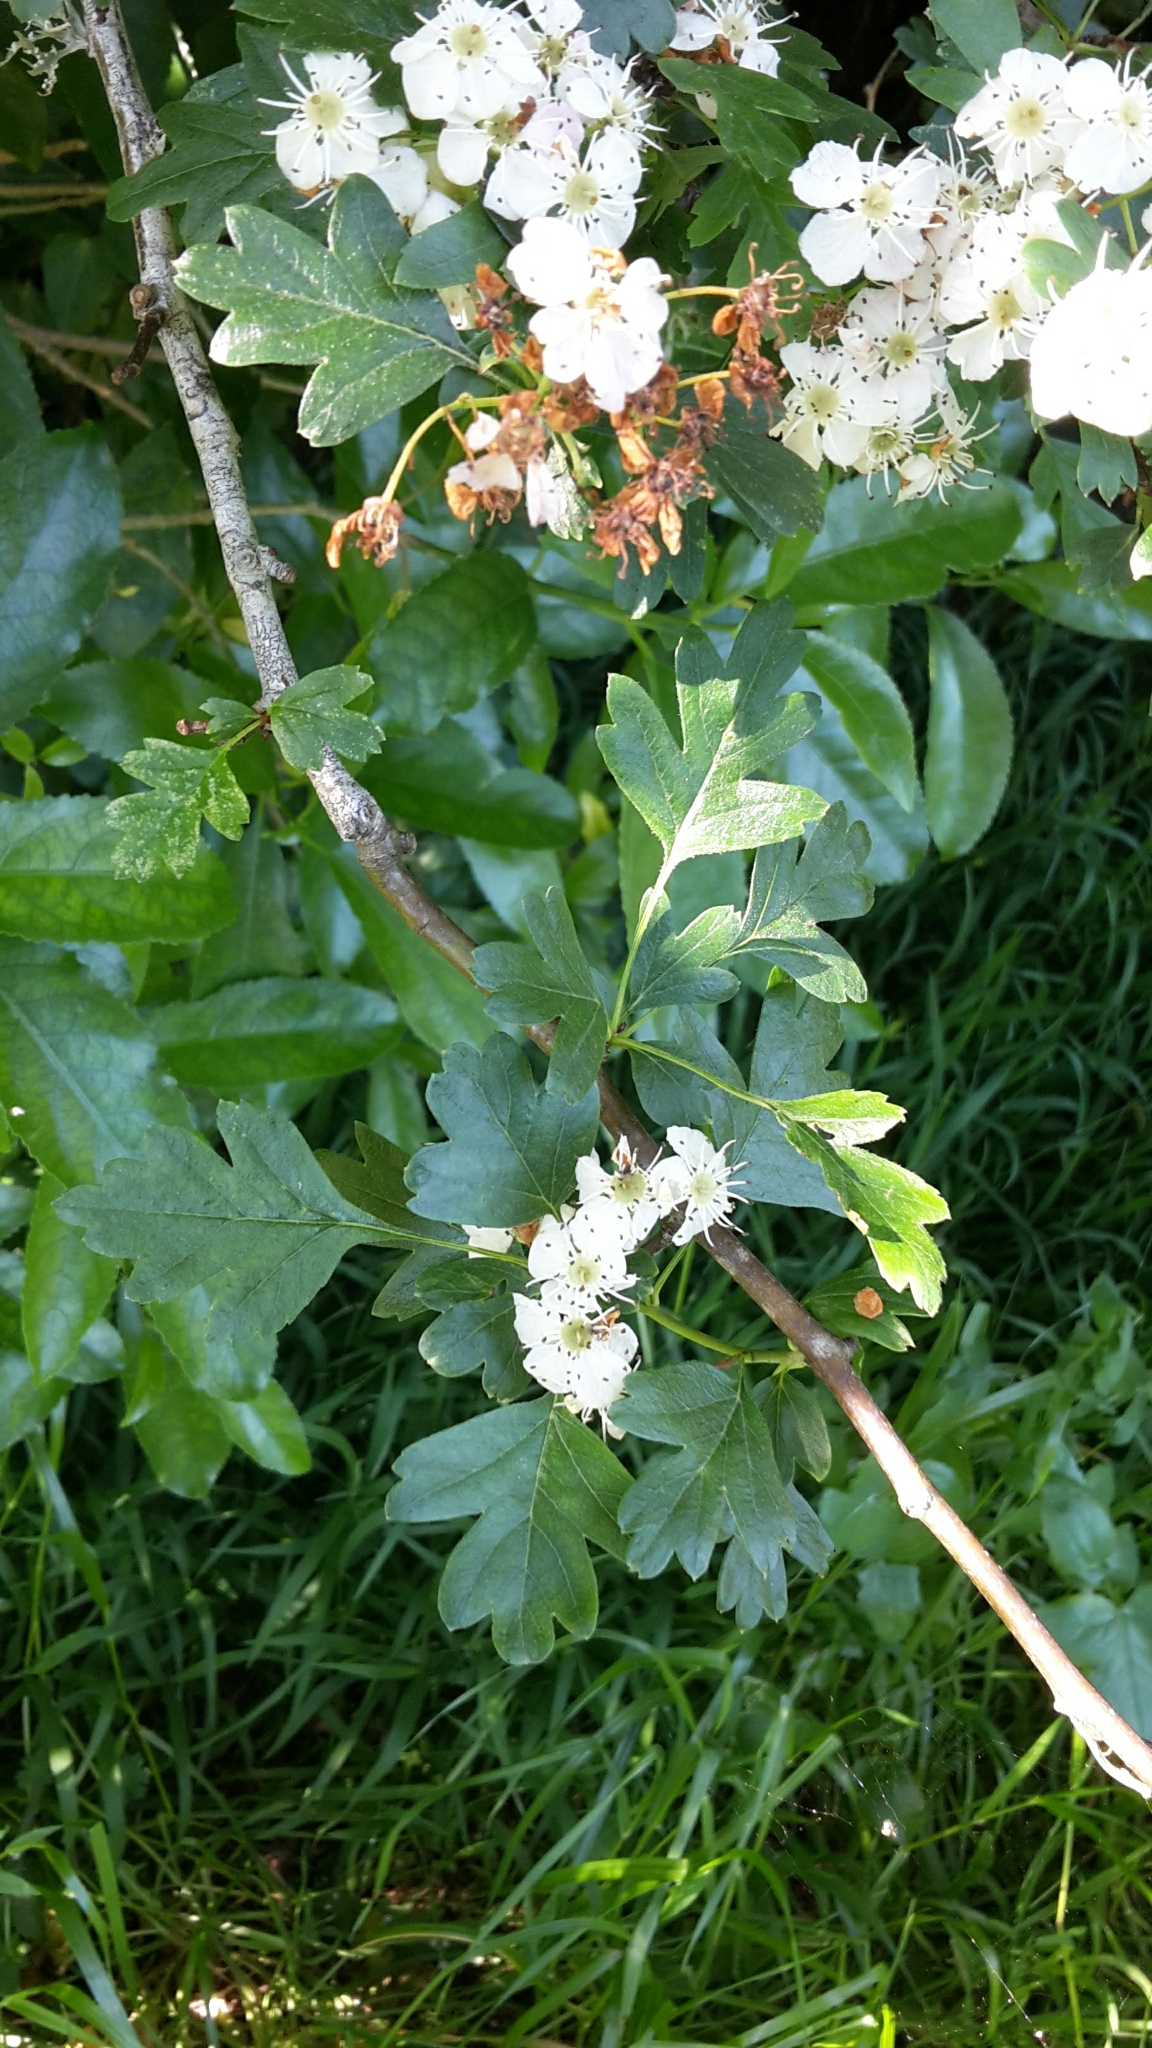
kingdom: Plantae
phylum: Tracheophyta
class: Magnoliopsida
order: Rosales
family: Rosaceae
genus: Crataegus
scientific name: Crataegus monogyna
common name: Hawthorn
